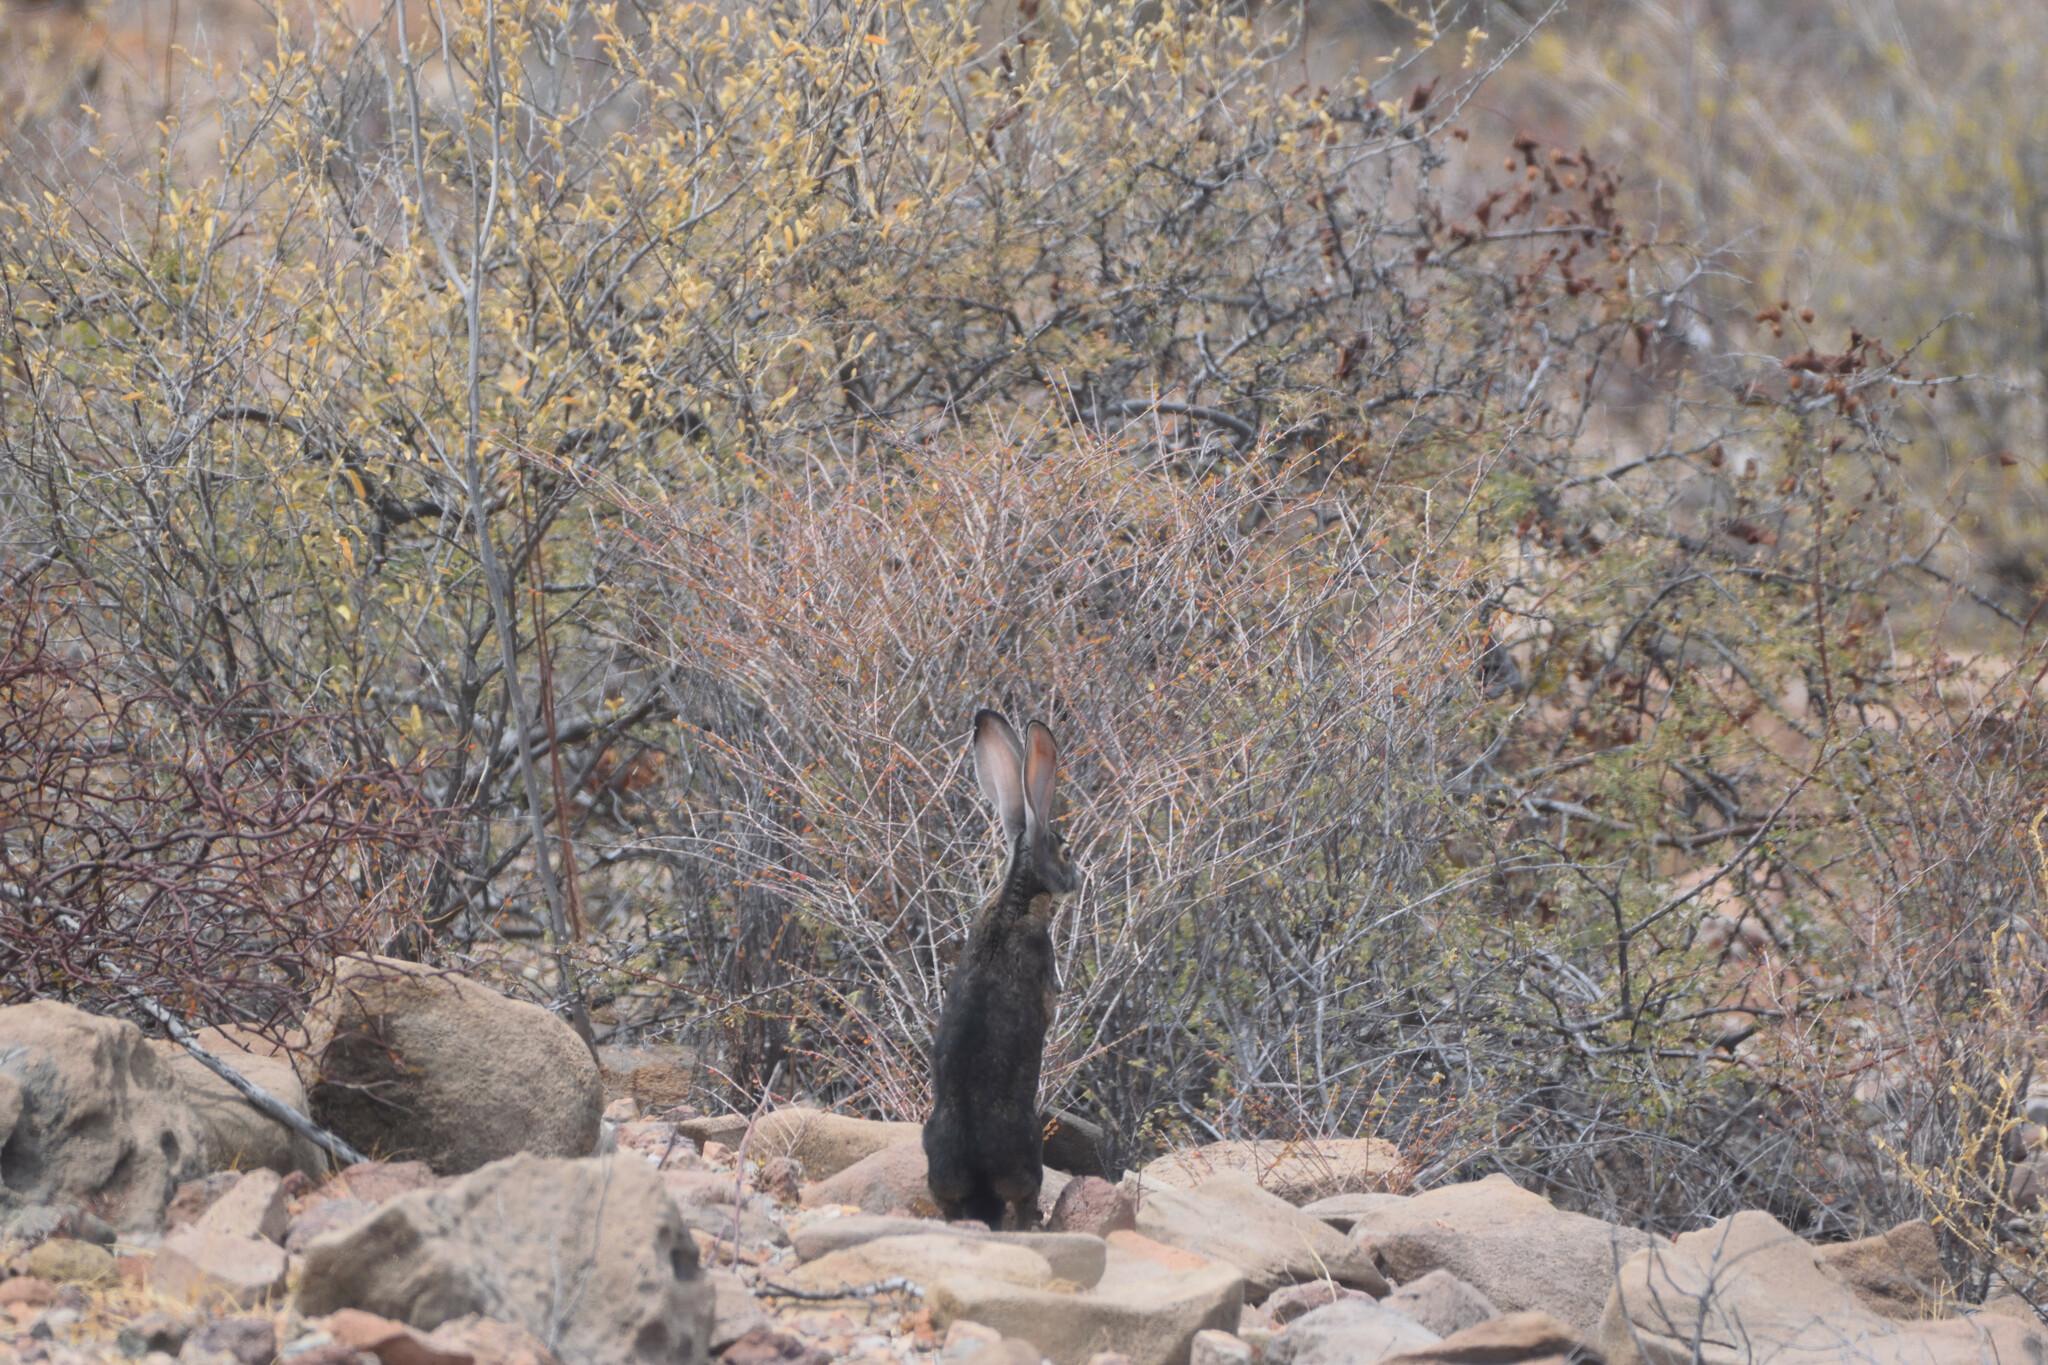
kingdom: Animalia
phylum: Chordata
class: Mammalia
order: Lagomorpha
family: Leporidae
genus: Lepus
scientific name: Lepus insularis
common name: Black jackrabbit
